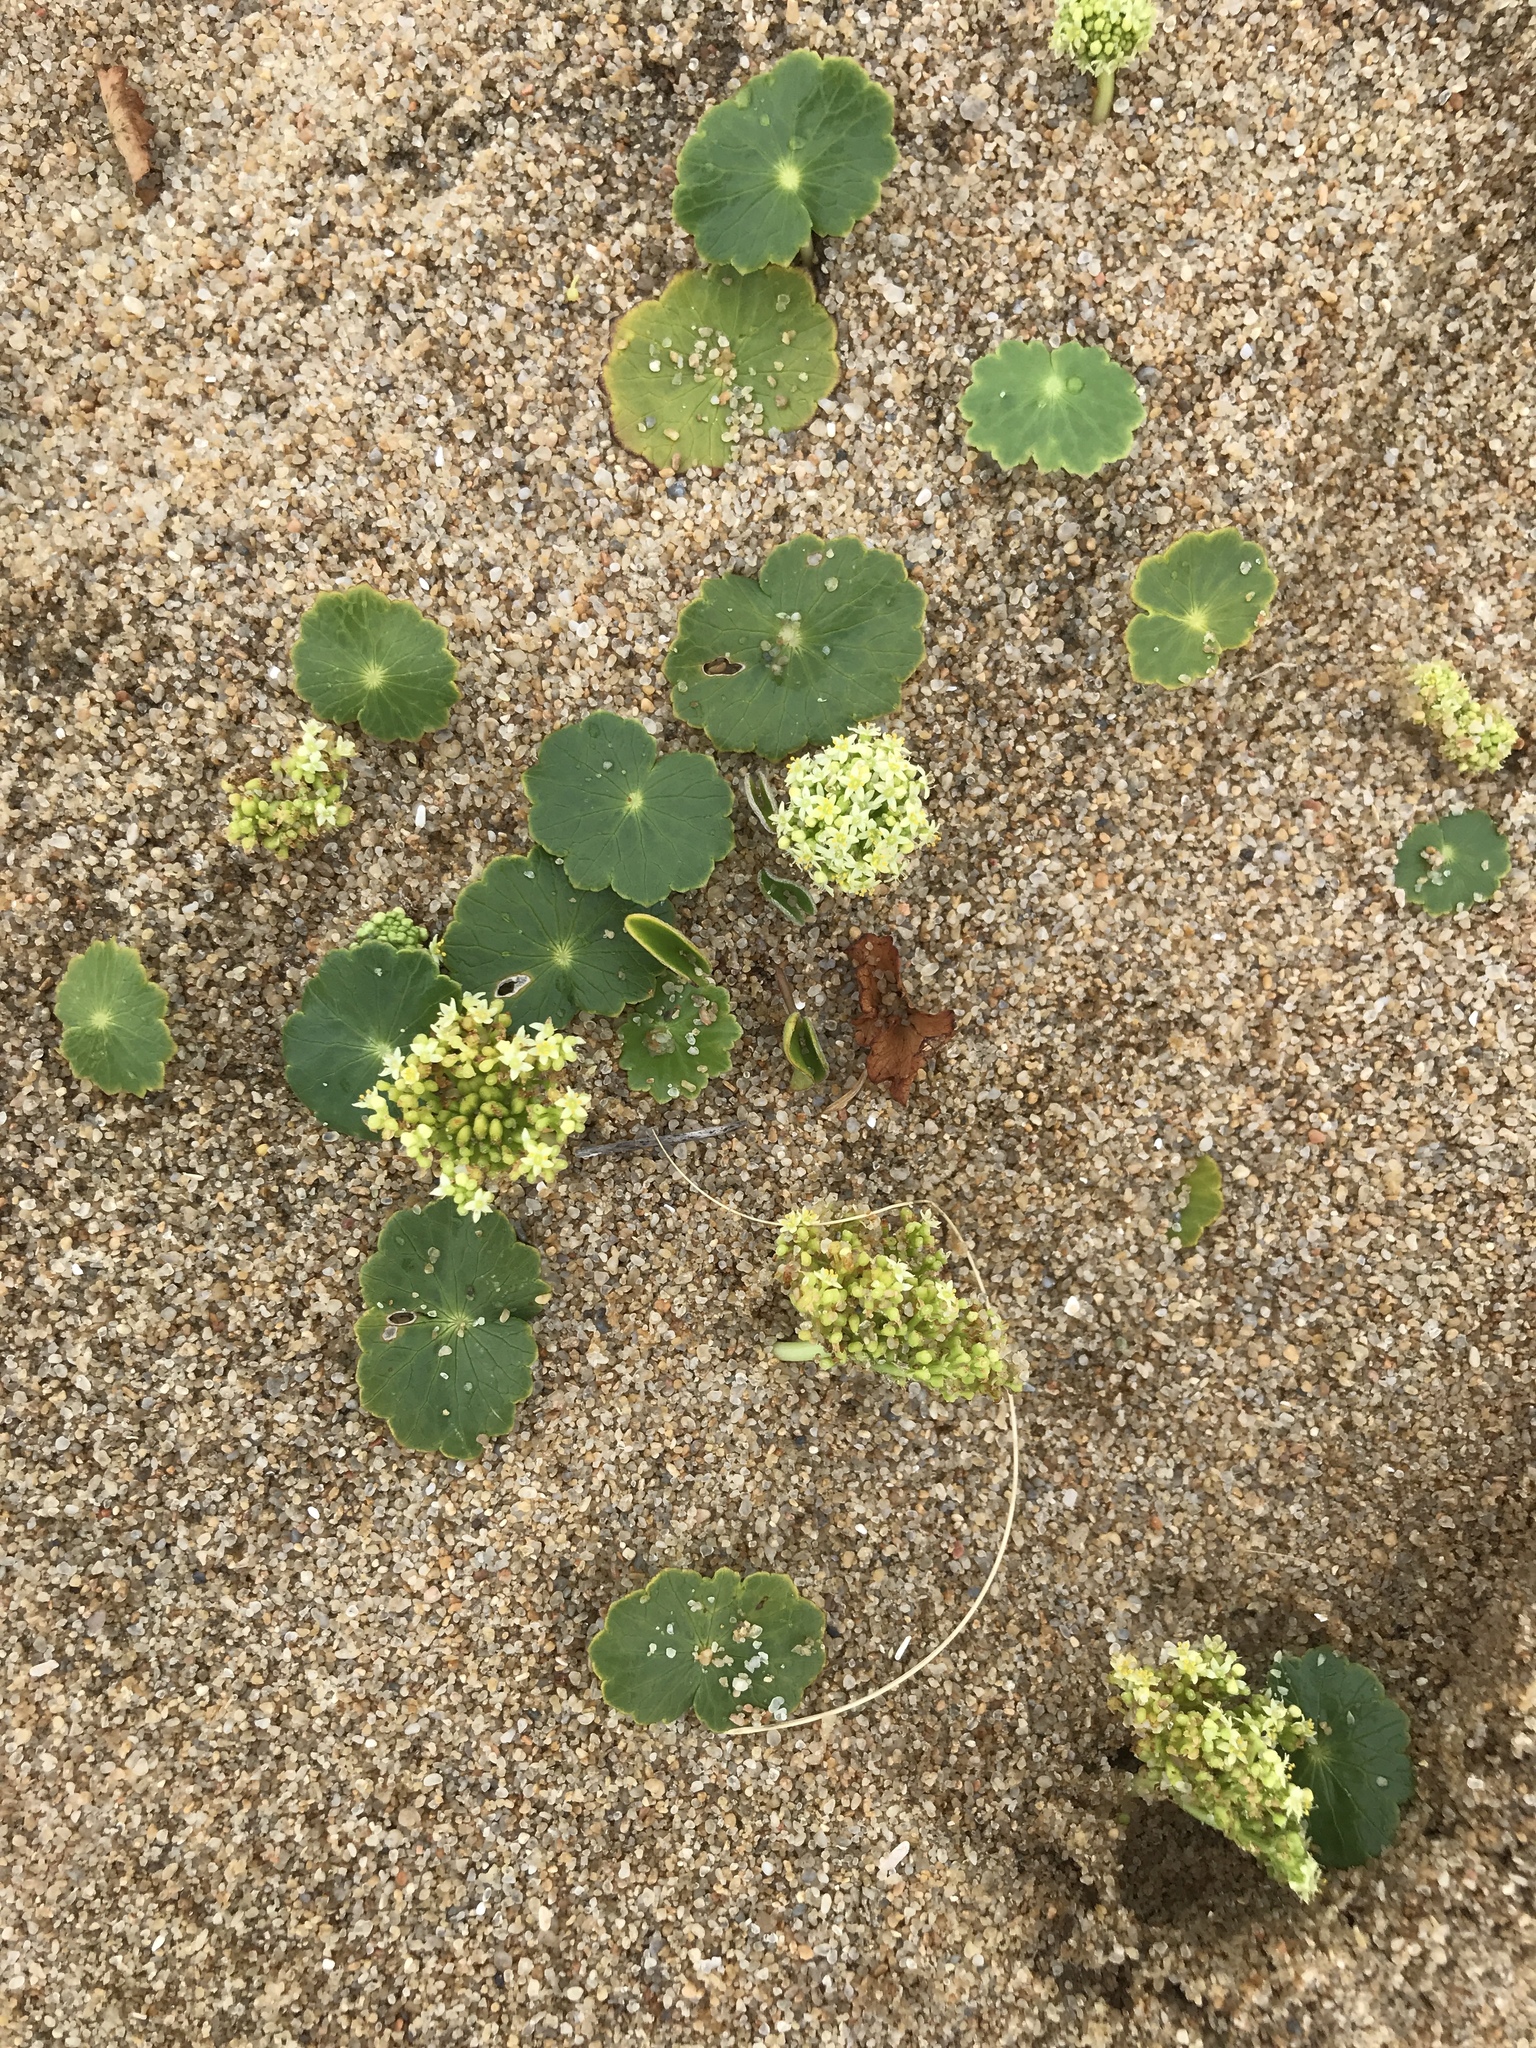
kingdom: Plantae
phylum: Tracheophyta
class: Magnoliopsida
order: Apiales
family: Araliaceae
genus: Hydrocotyle
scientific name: Hydrocotyle bonariensis
